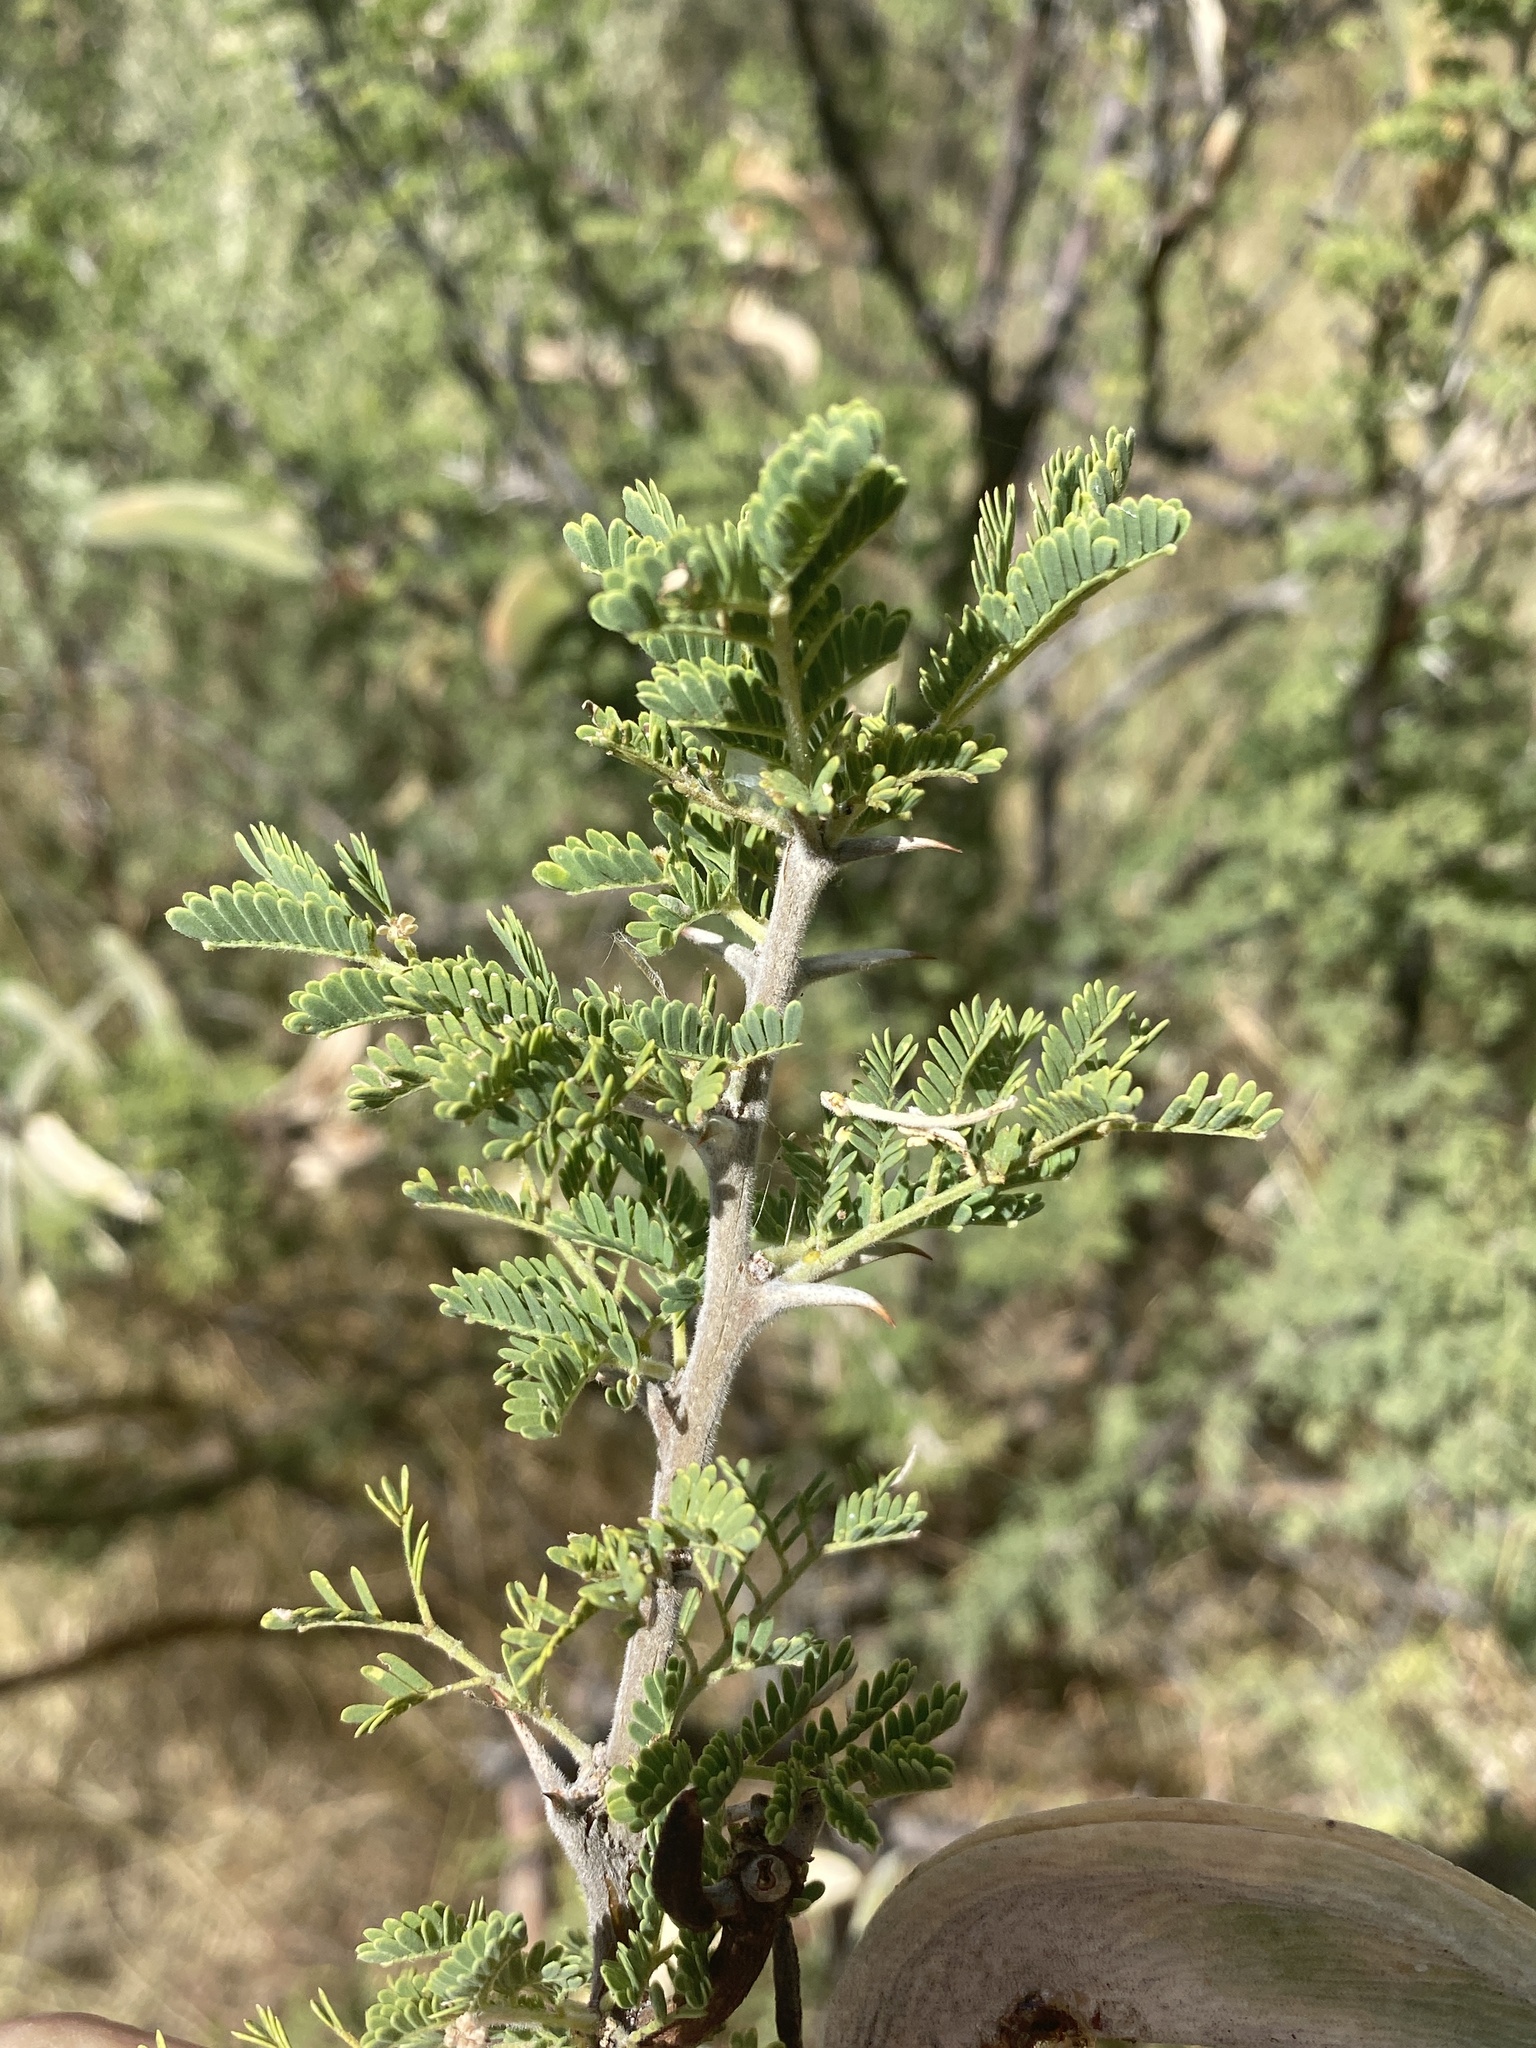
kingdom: Plantae
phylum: Tracheophyta
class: Magnoliopsida
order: Fabales
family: Fabaceae
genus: Vachellia
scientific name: Vachellia hebeclada
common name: Candle thorn
